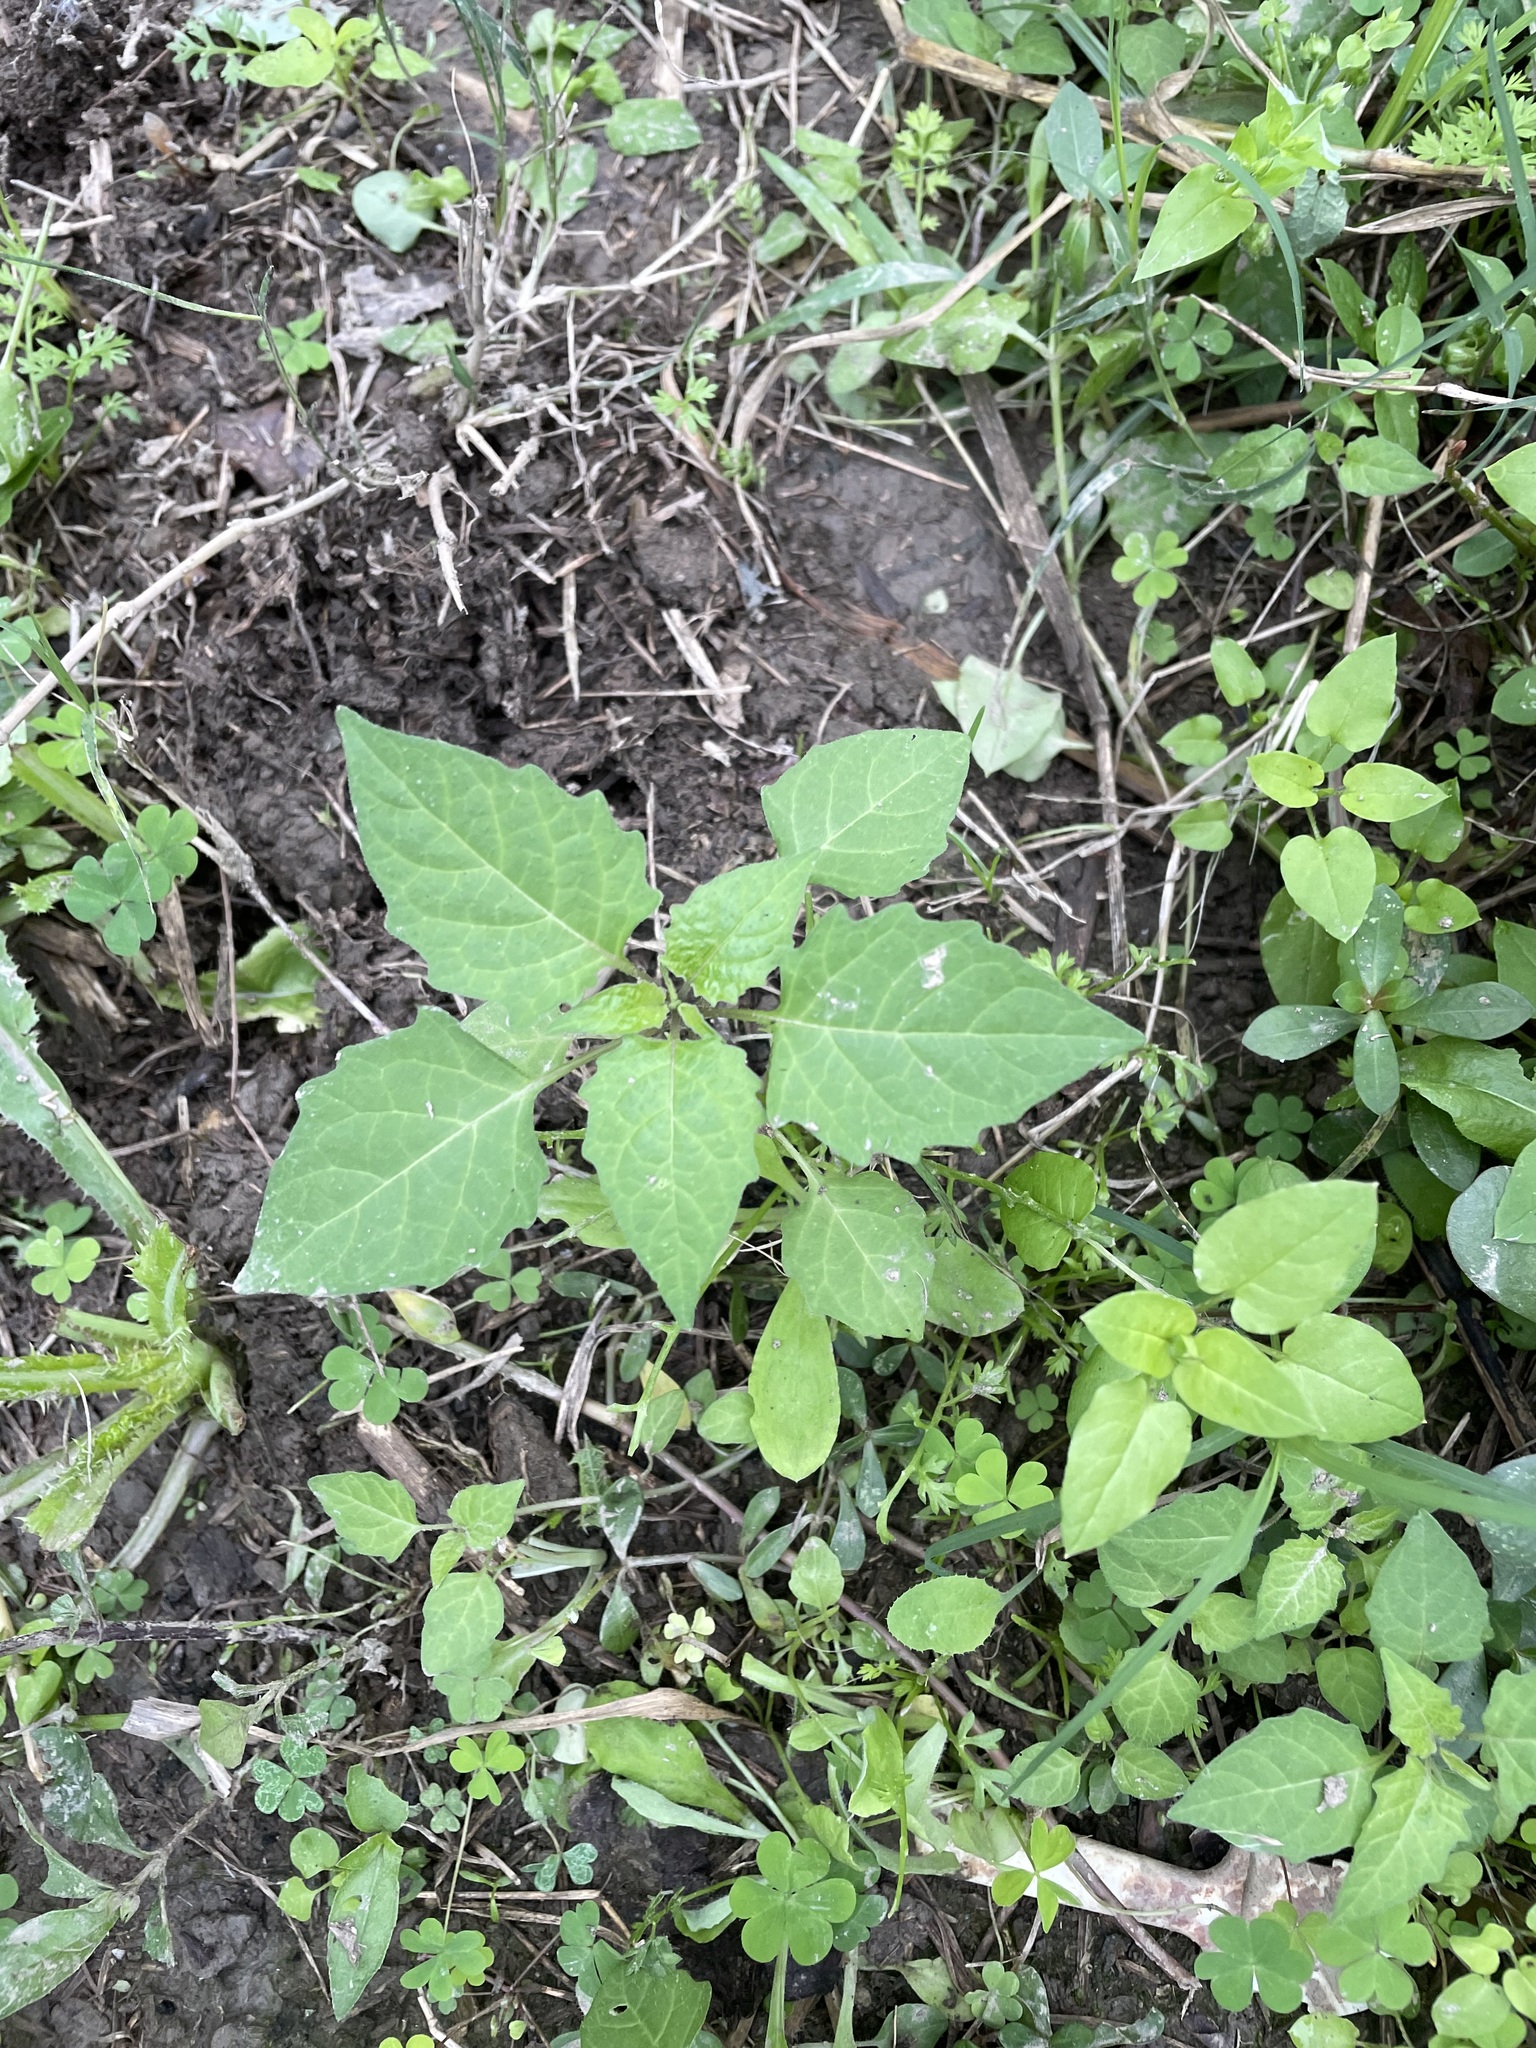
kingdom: Plantae
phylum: Tracheophyta
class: Magnoliopsida
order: Solanales
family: Solanaceae
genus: Solanum
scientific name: Solanum
